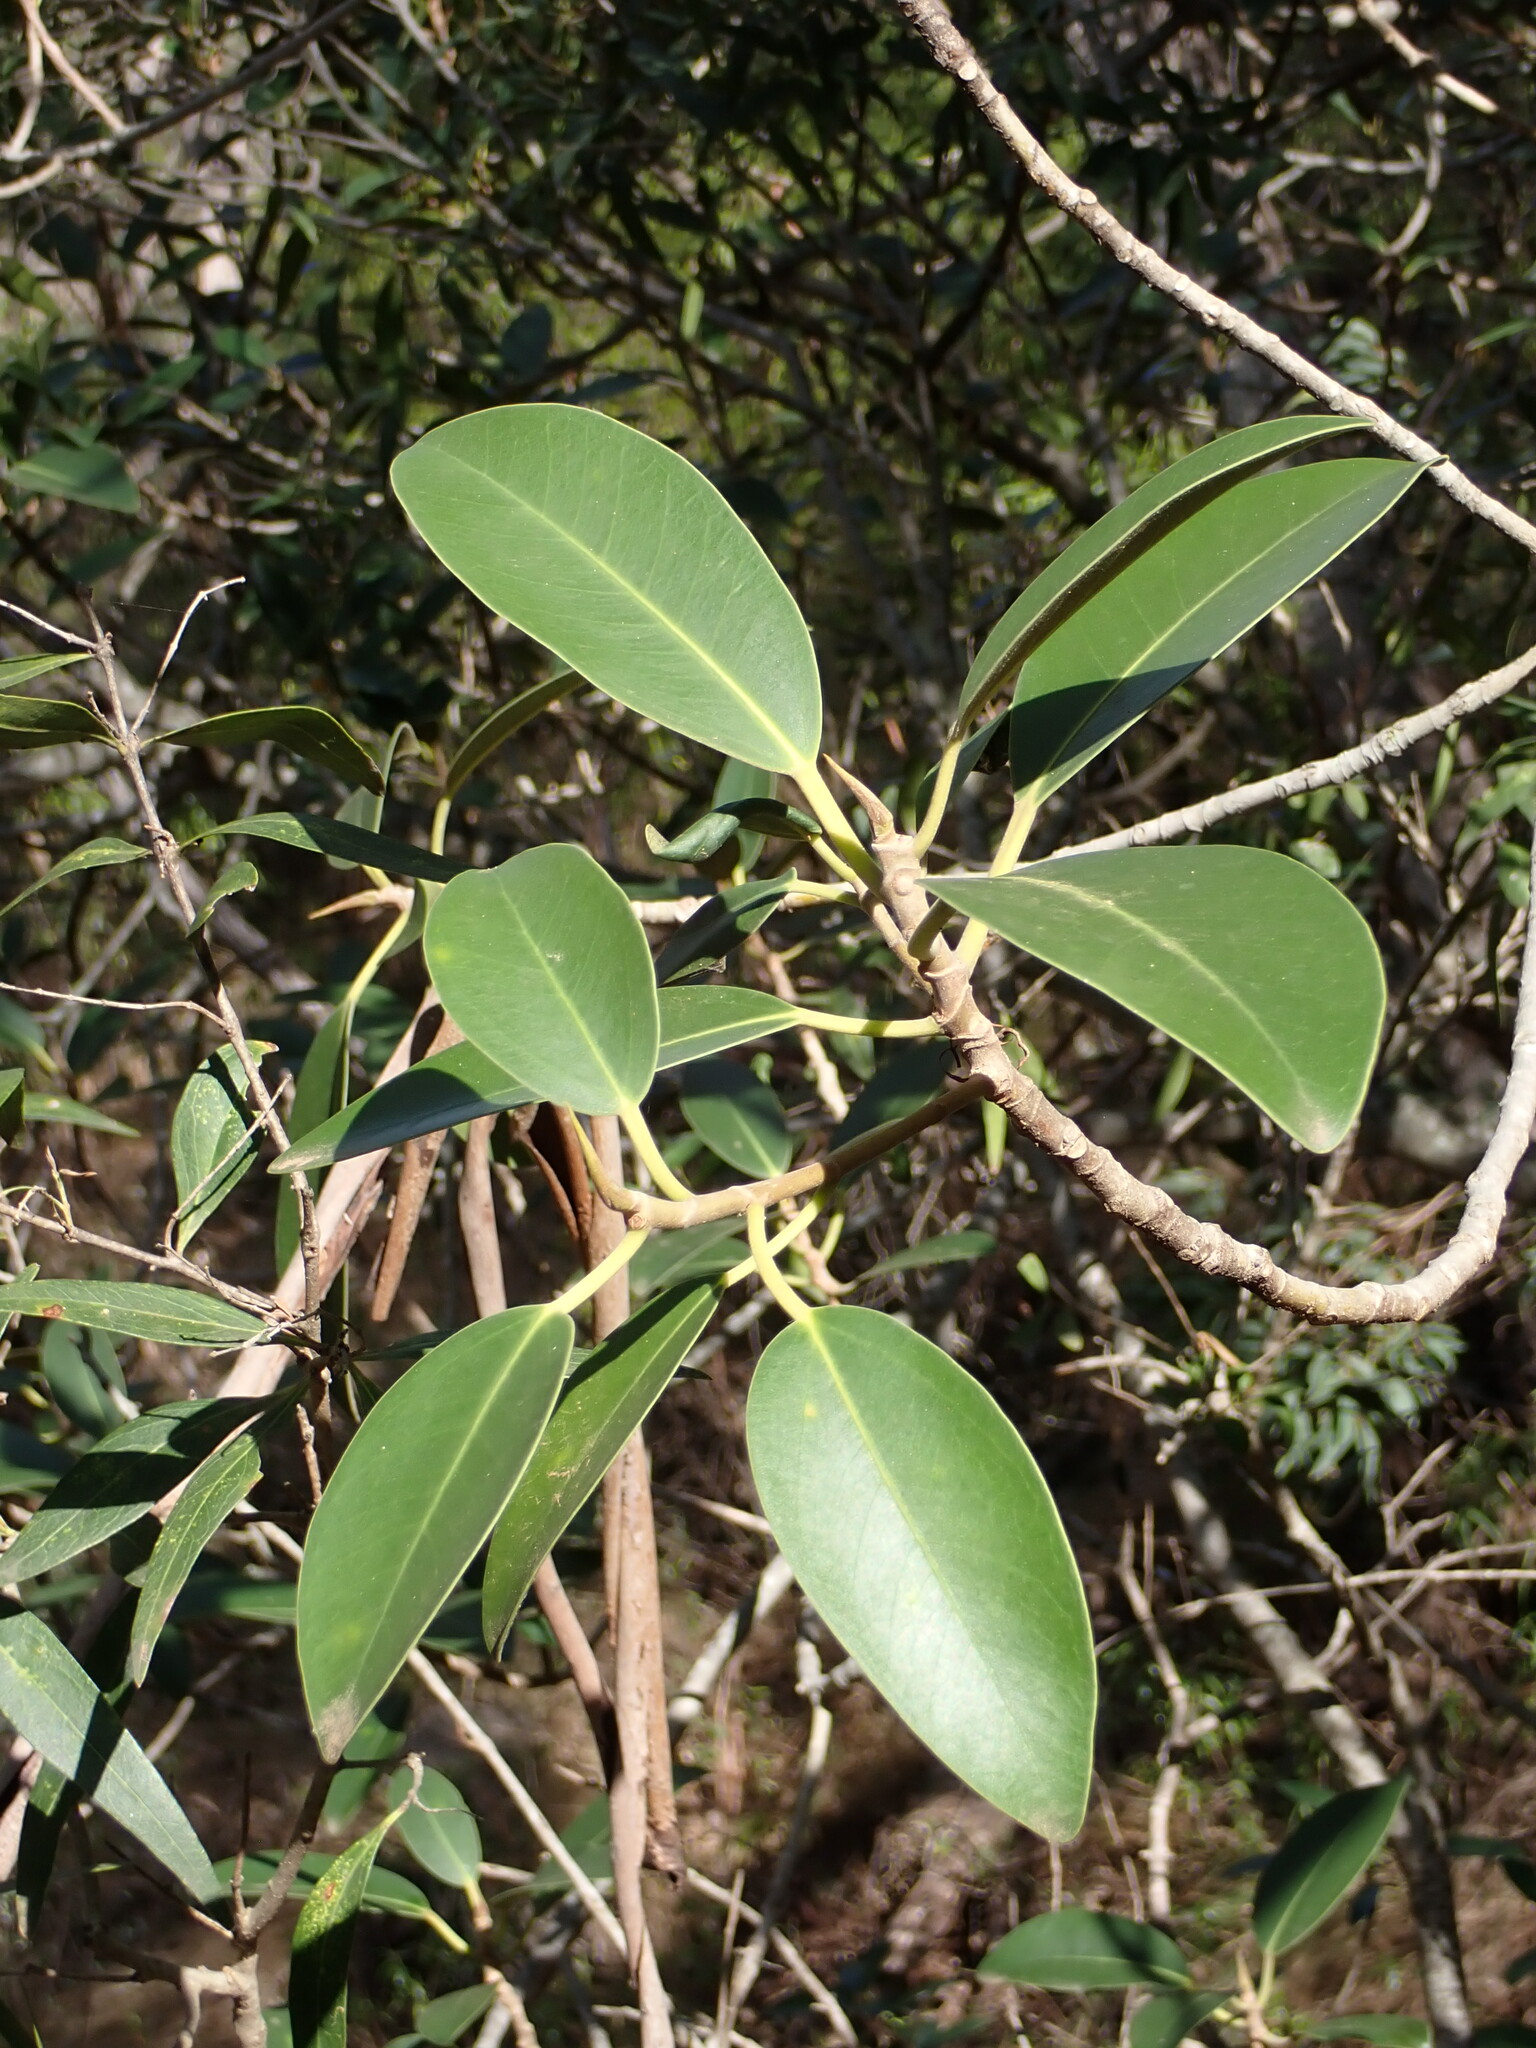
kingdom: Plantae
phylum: Tracheophyta
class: Magnoliopsida
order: Rosales
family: Moraceae
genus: Ficus
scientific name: Ficus rubiginosa
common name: Port jackson fig
